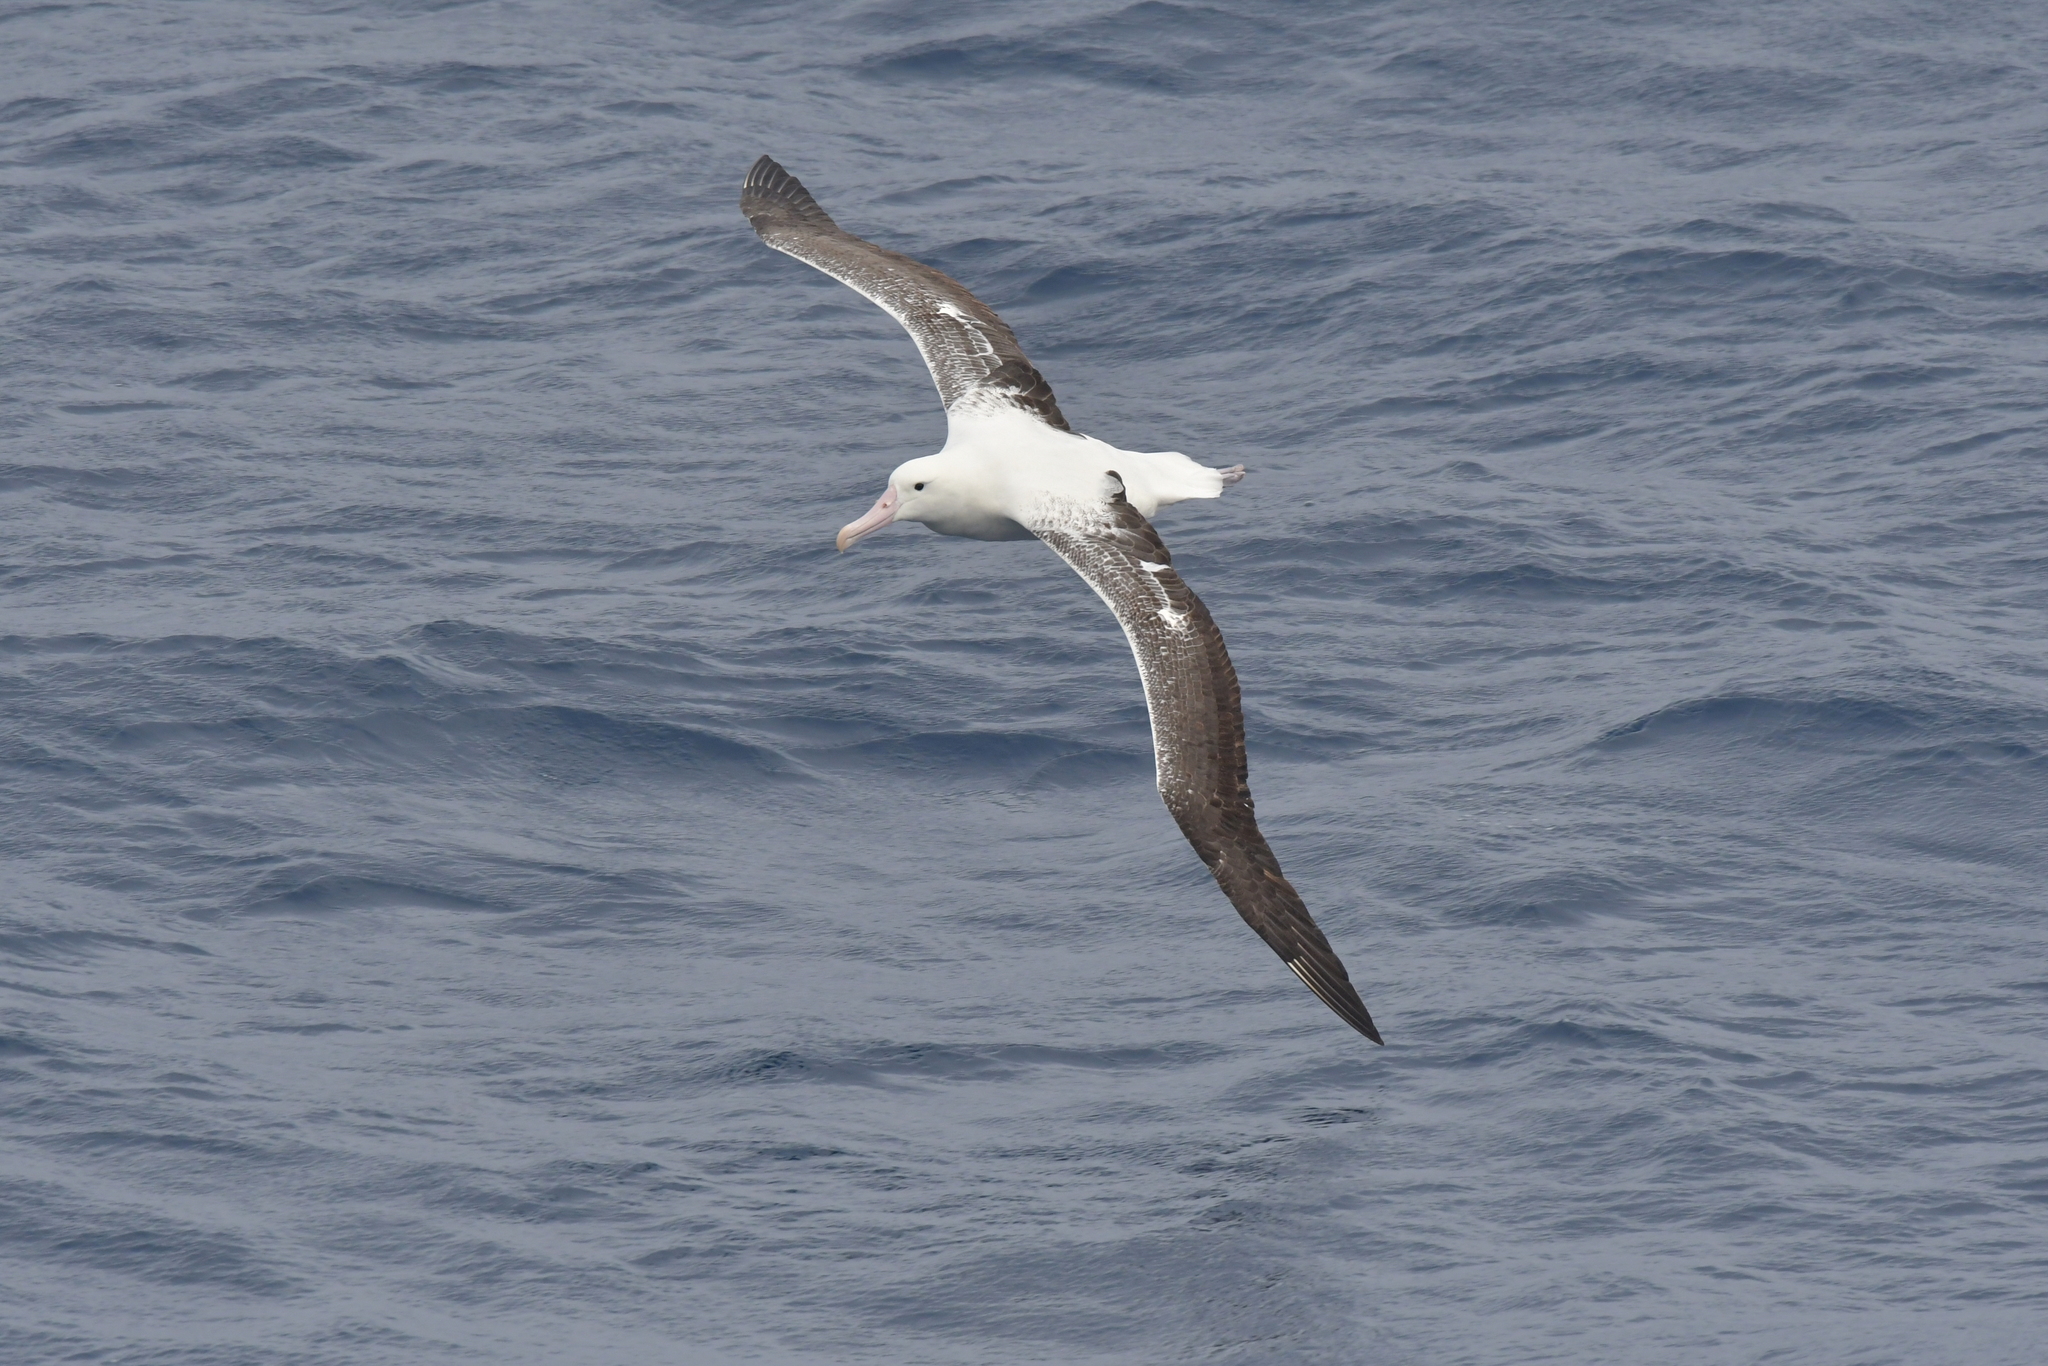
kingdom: Animalia
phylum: Chordata
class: Aves
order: Procellariiformes
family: Diomedeidae
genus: Diomedea
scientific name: Diomedea epomophora
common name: Southern royal albatross
